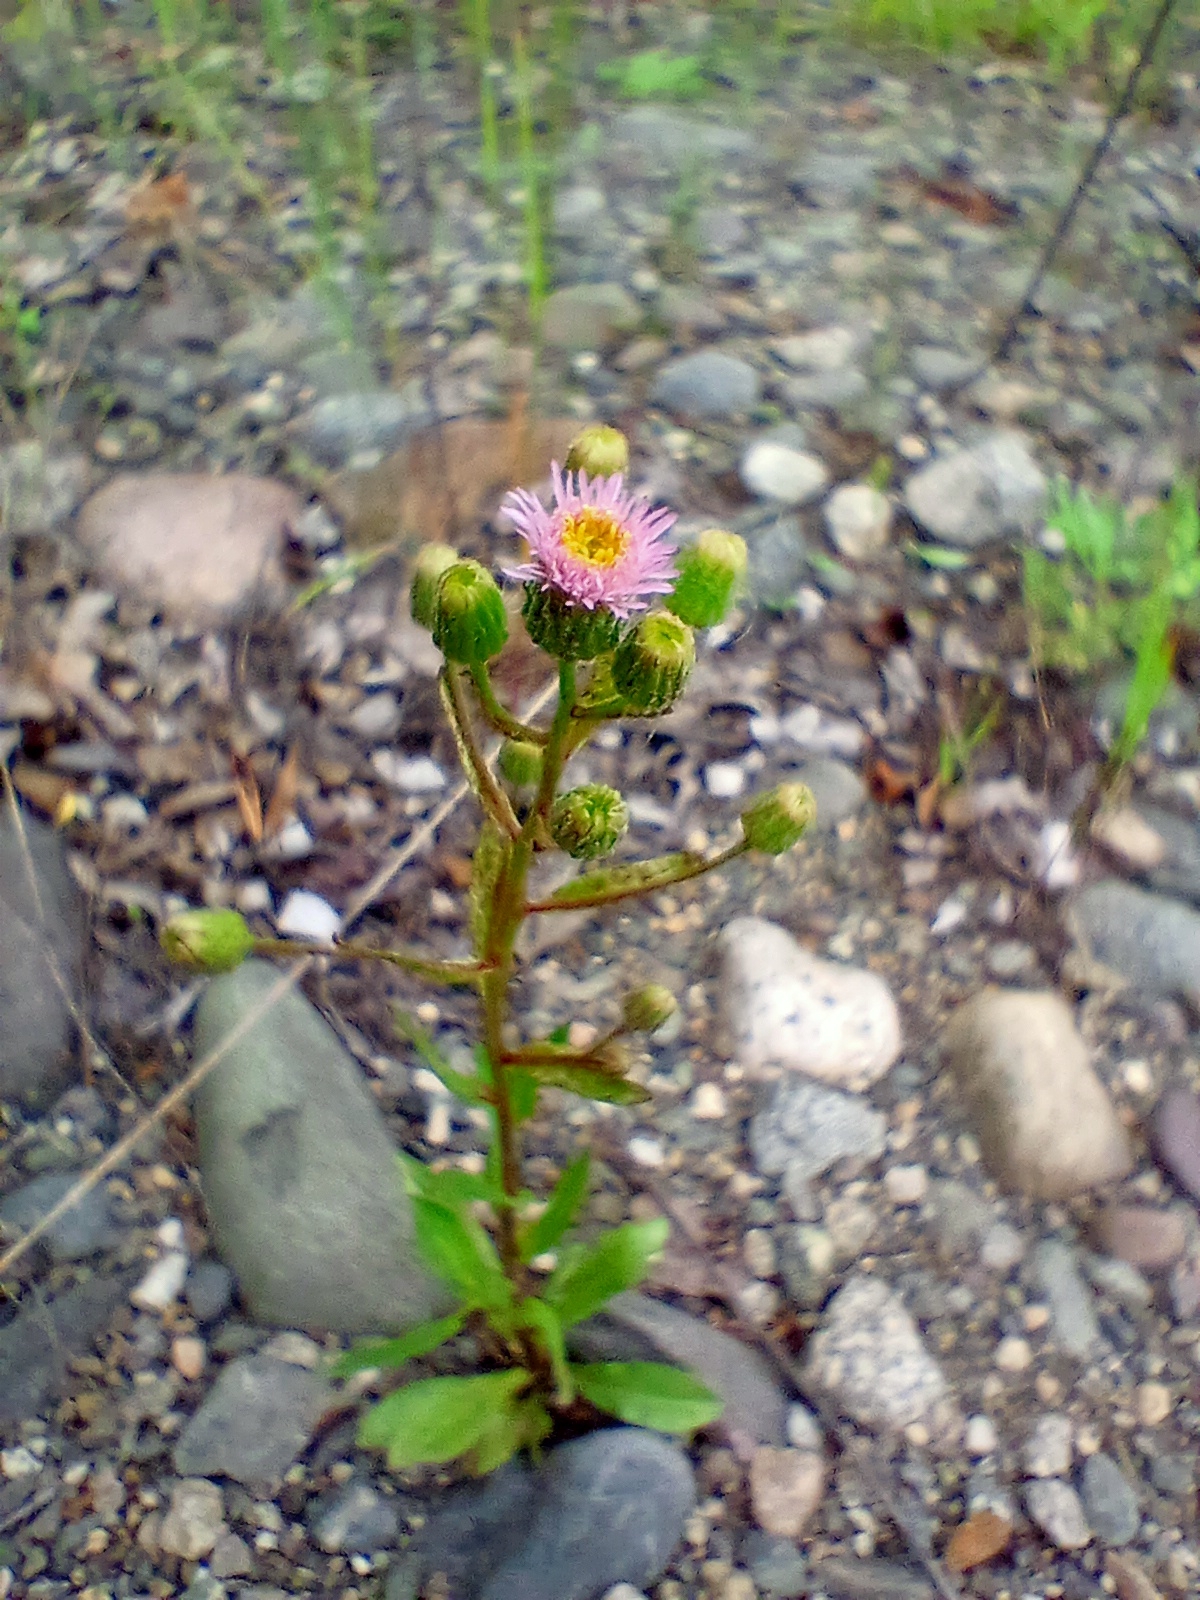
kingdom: Plantae
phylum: Tracheophyta
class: Magnoliopsida
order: Asterales
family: Asteraceae
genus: Erigeron
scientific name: Erigeron acris
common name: Blue fleabane
